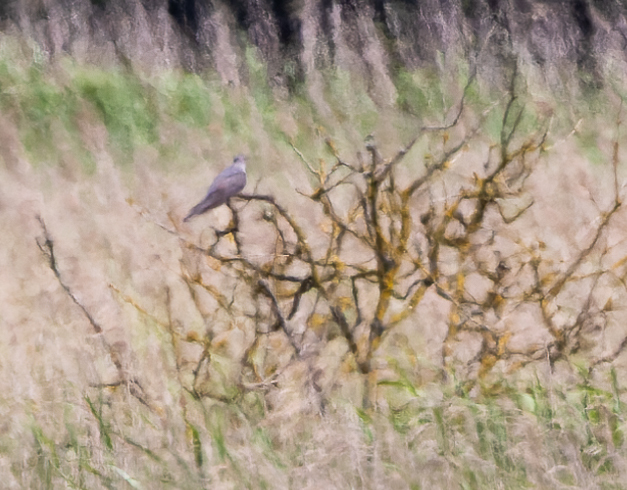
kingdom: Animalia
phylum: Chordata
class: Aves
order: Cuculiformes
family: Cuculidae
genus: Cuculus
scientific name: Cuculus canorus
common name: Common cuckoo
